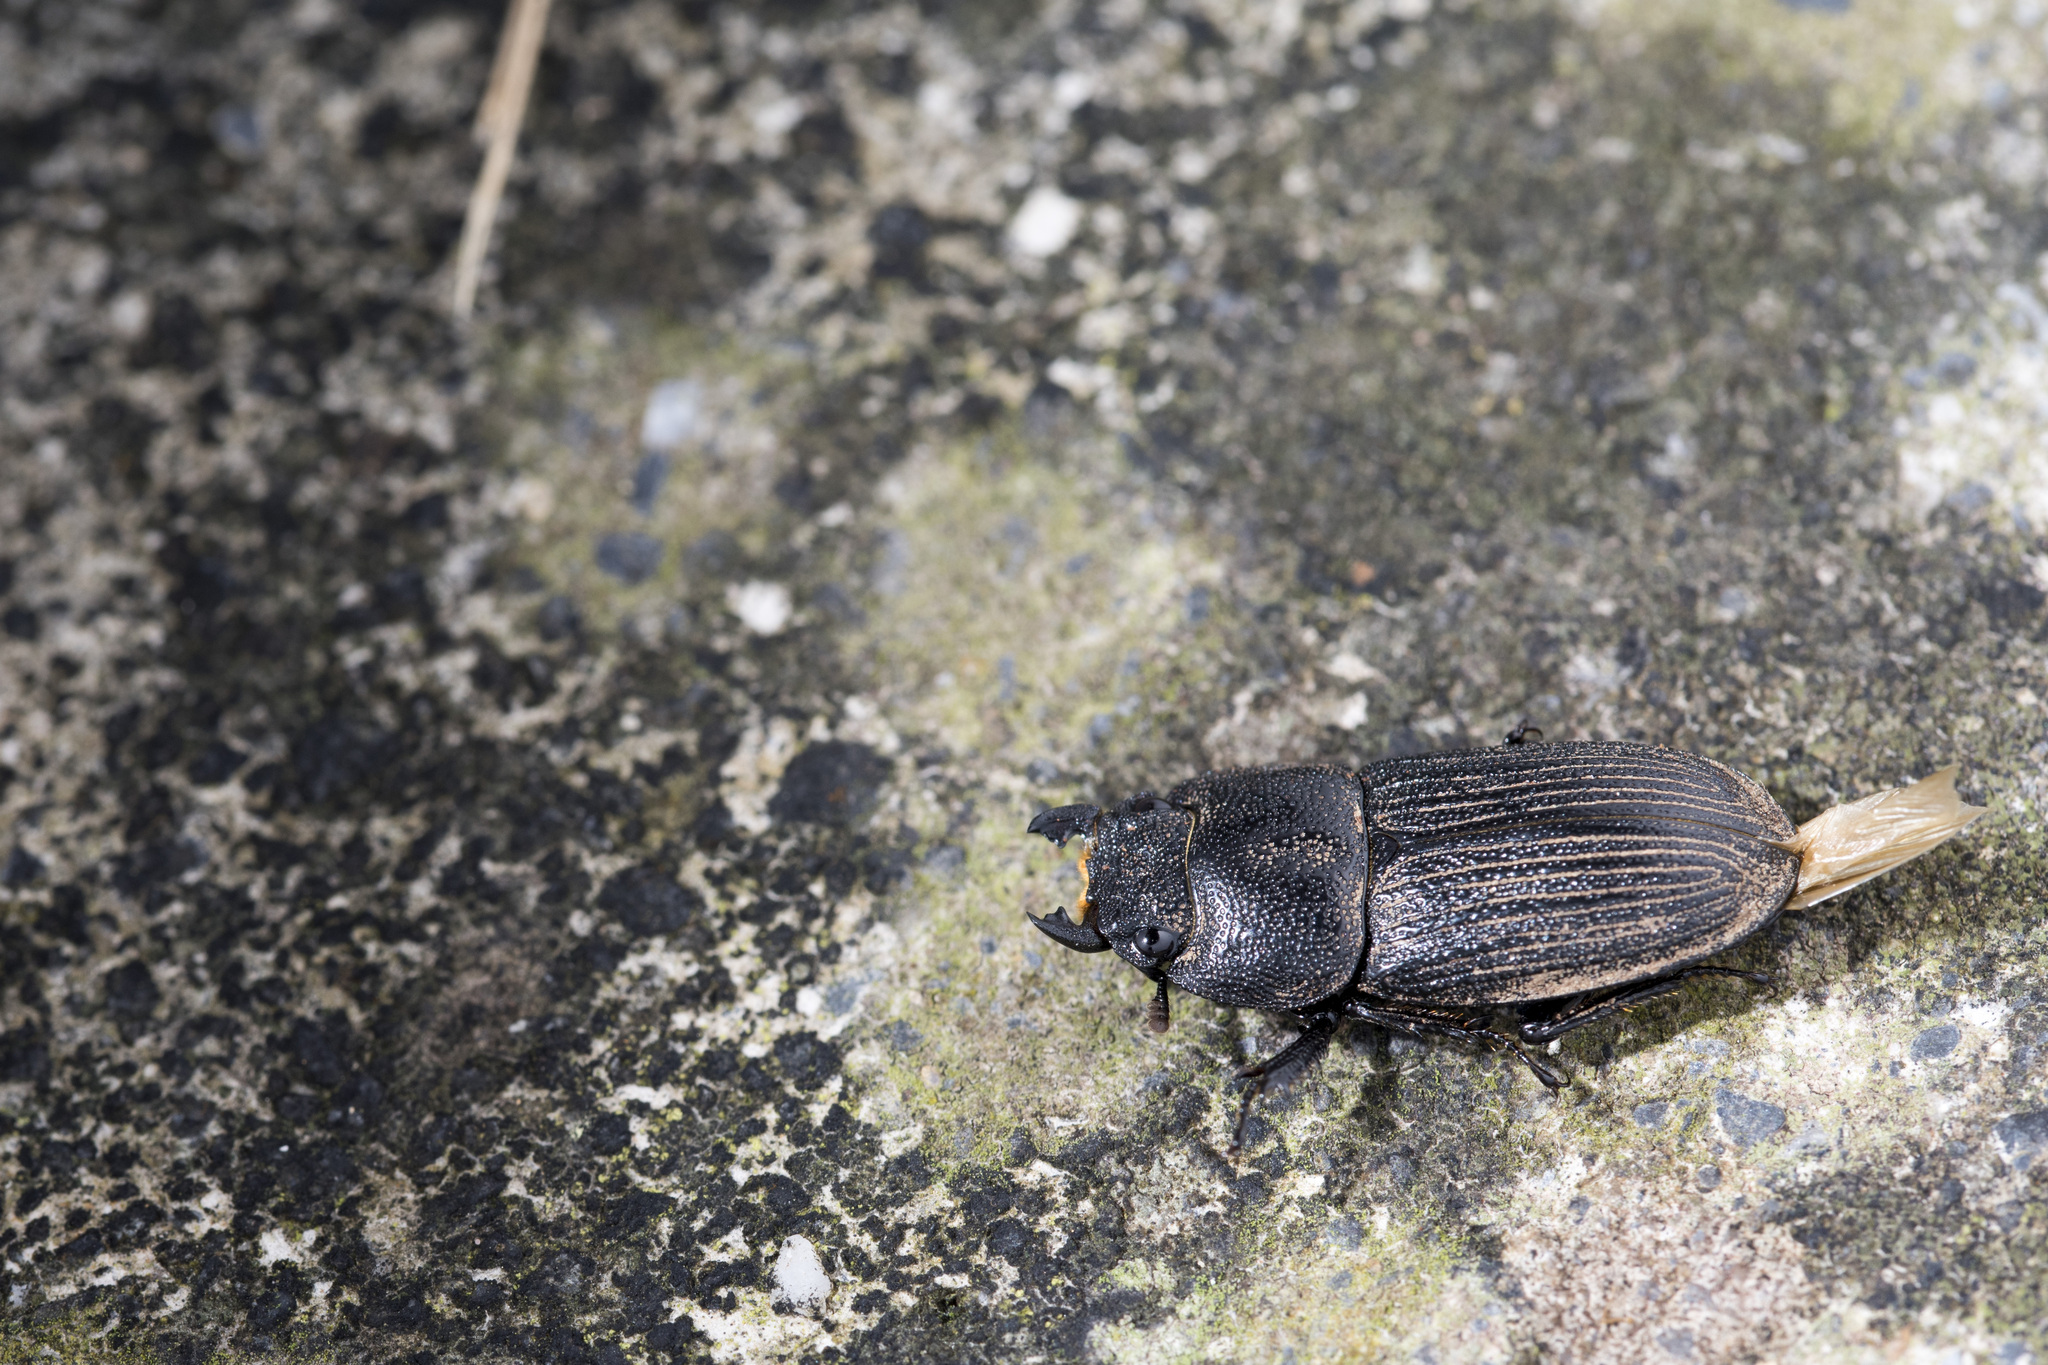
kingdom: Animalia
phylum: Arthropoda
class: Insecta
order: Coleoptera
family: Lucanidae
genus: Aegus
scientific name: Aegus laevicollis
